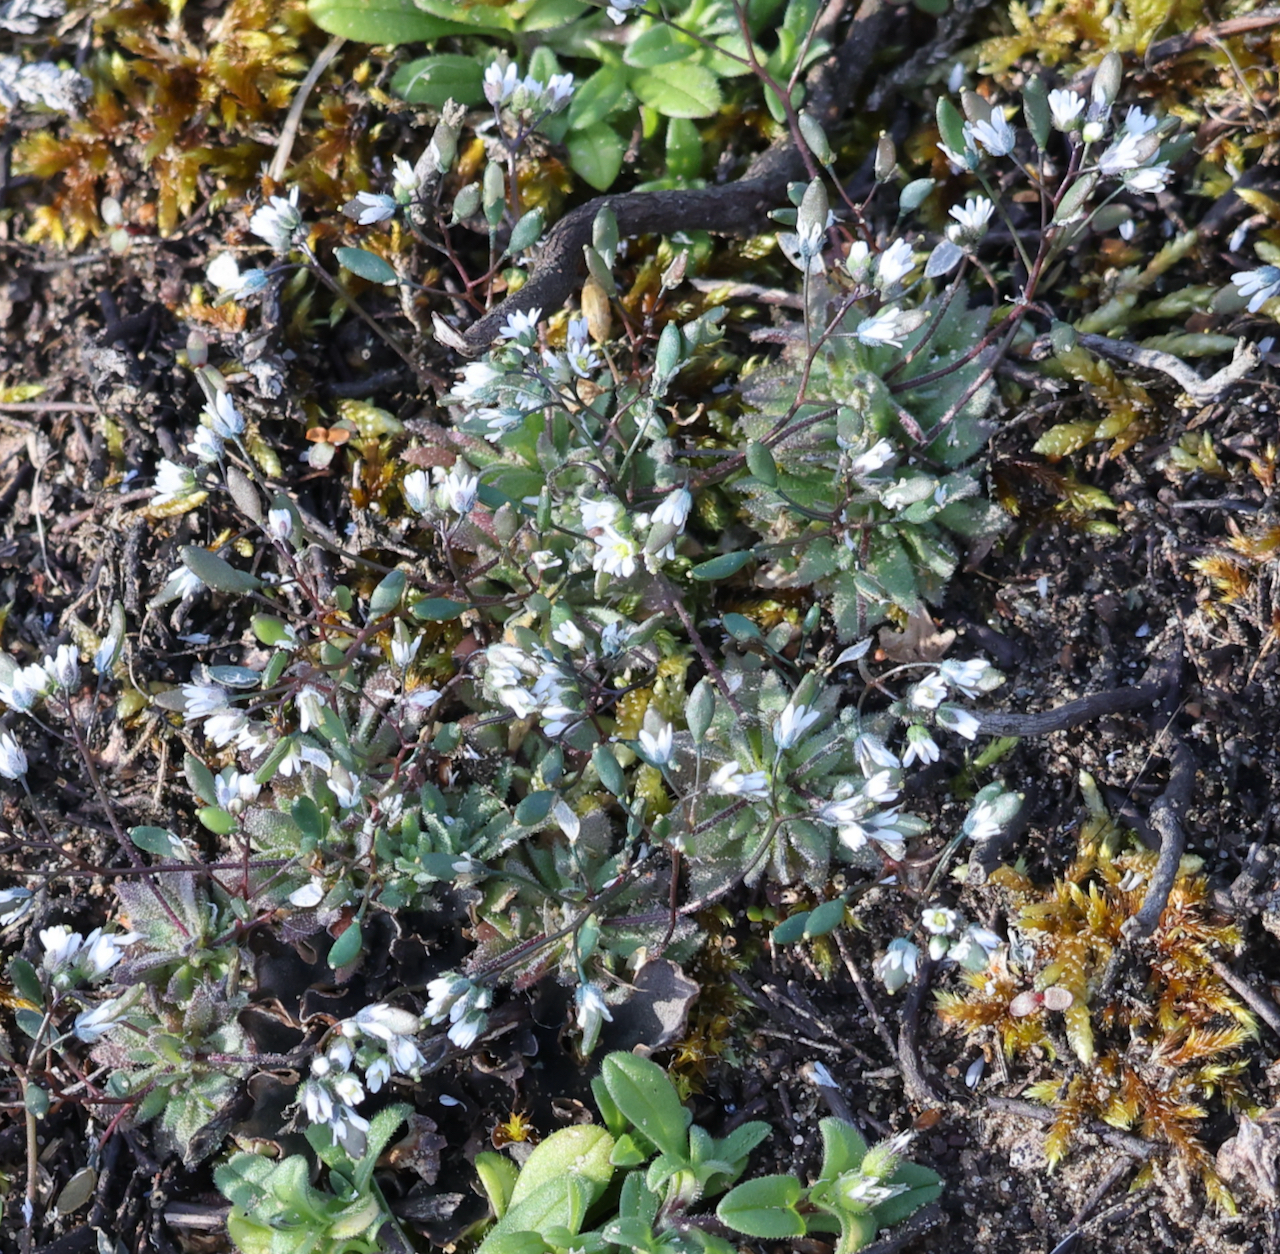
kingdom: Plantae
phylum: Tracheophyta
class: Magnoliopsida
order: Brassicales
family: Brassicaceae
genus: Draba
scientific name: Draba verna
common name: Spring draba
